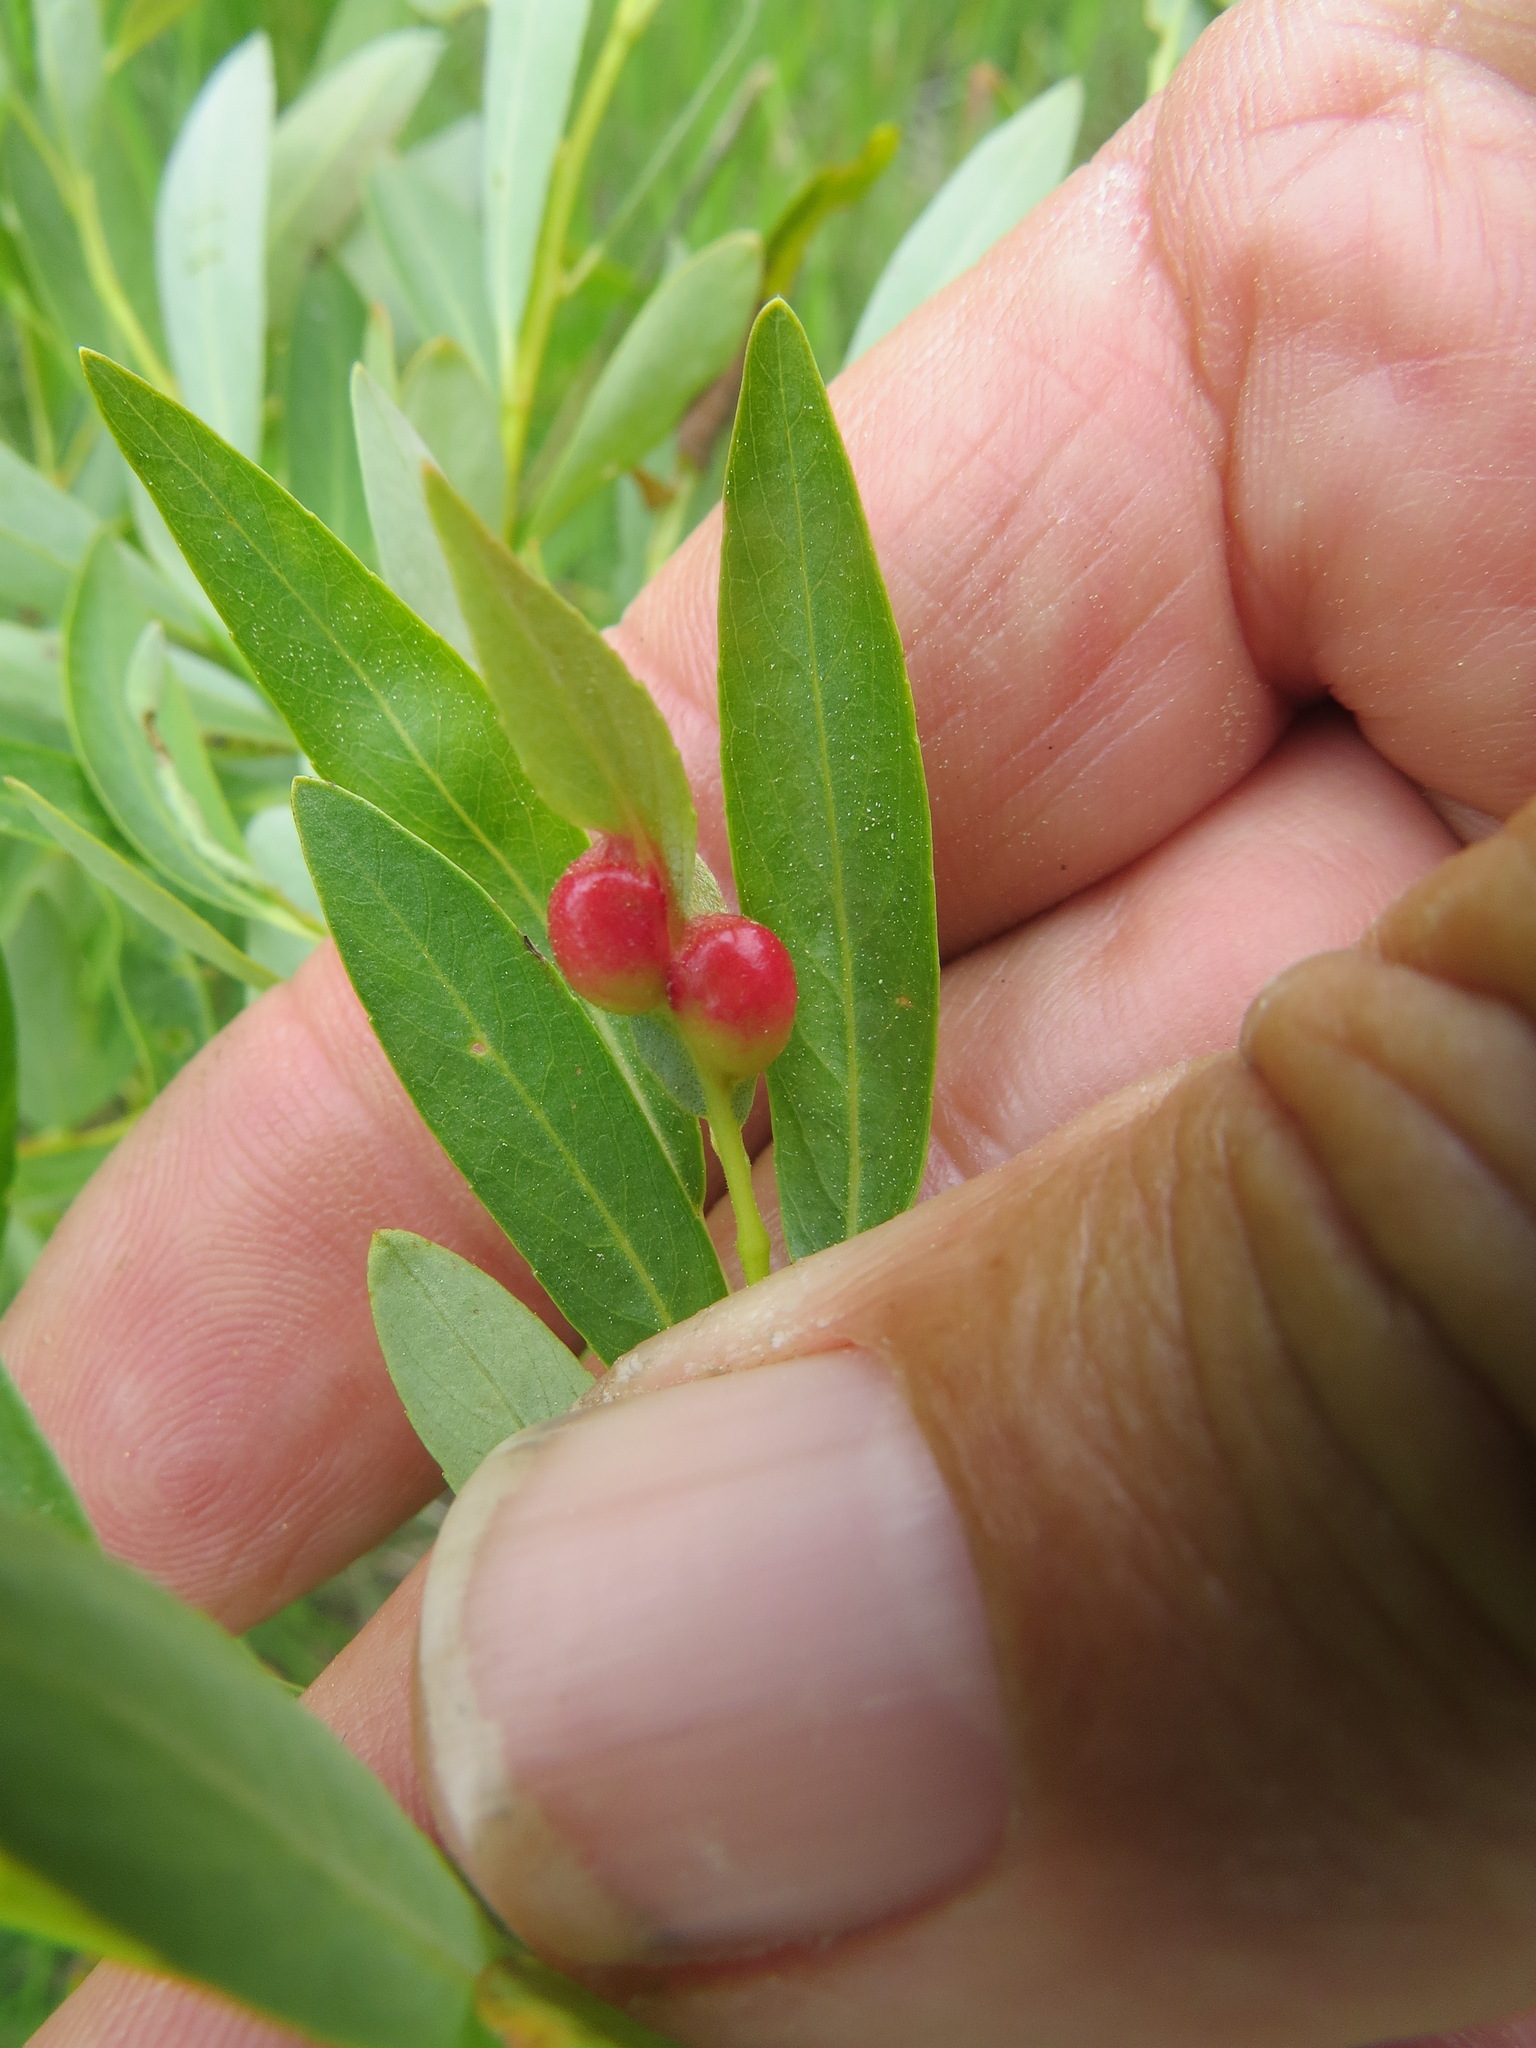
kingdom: Animalia
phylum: Arthropoda
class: Insecta
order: Hymenoptera
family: Tenthredinidae
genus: Euura
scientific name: Euura
